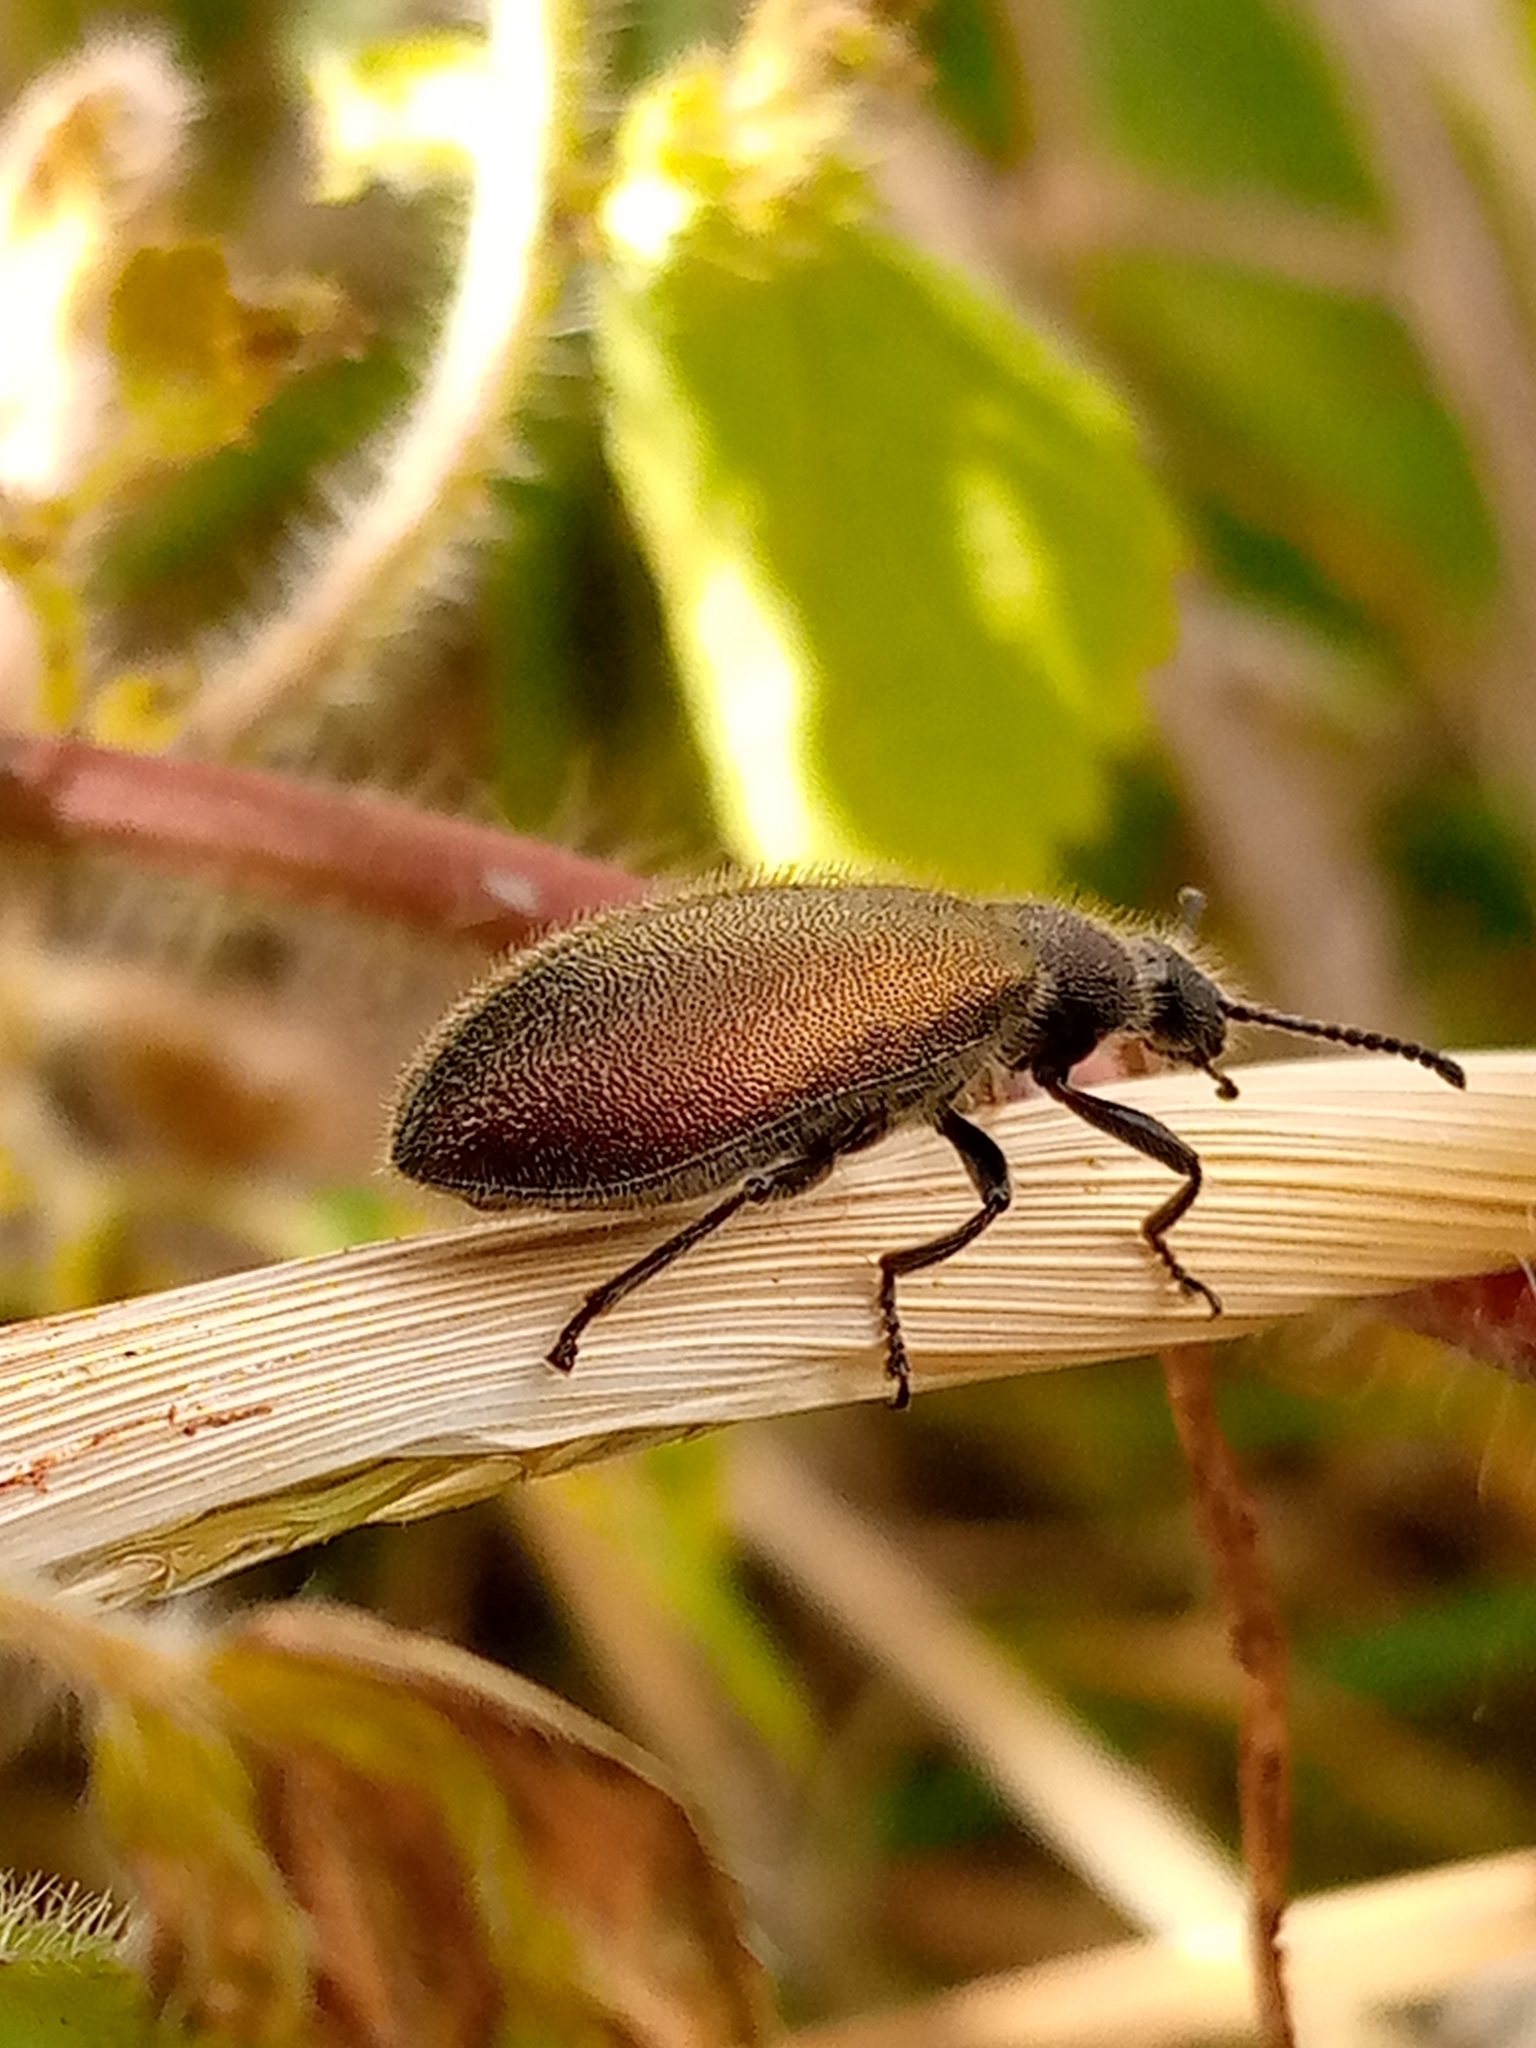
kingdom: Animalia
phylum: Arthropoda
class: Insecta
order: Coleoptera
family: Tenebrionidae
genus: Lagria
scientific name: Lagria villosa
